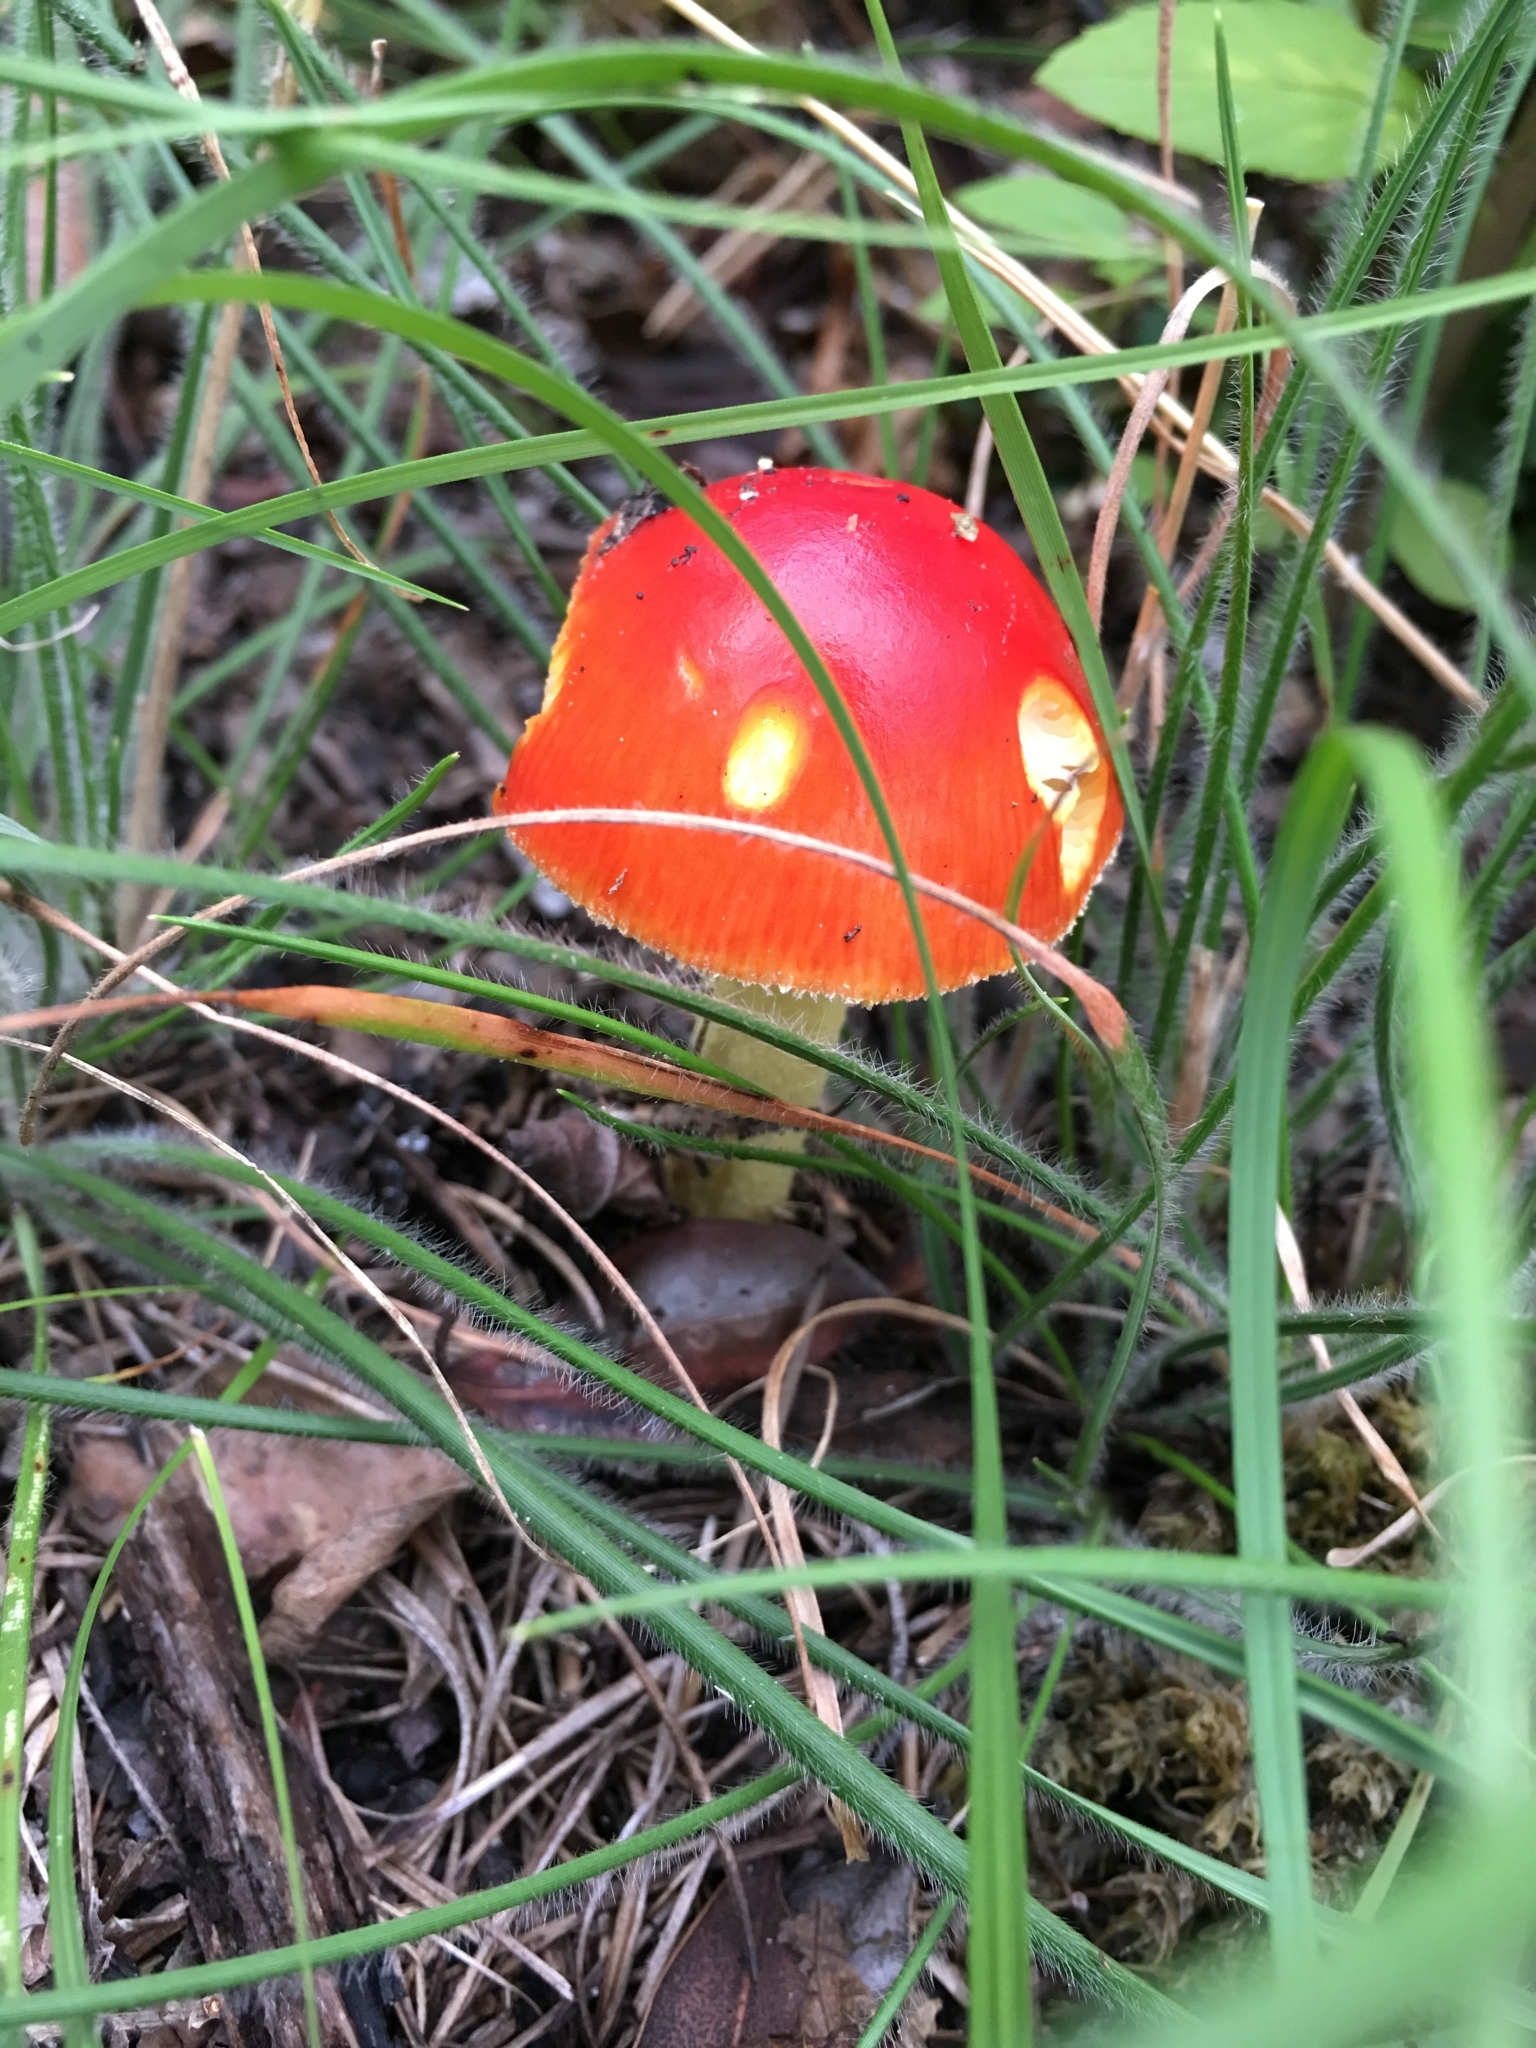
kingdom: Fungi
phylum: Basidiomycota
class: Agaricomycetes
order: Agaricales
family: Amanitaceae
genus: Amanita
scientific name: Amanita parcivolvata
